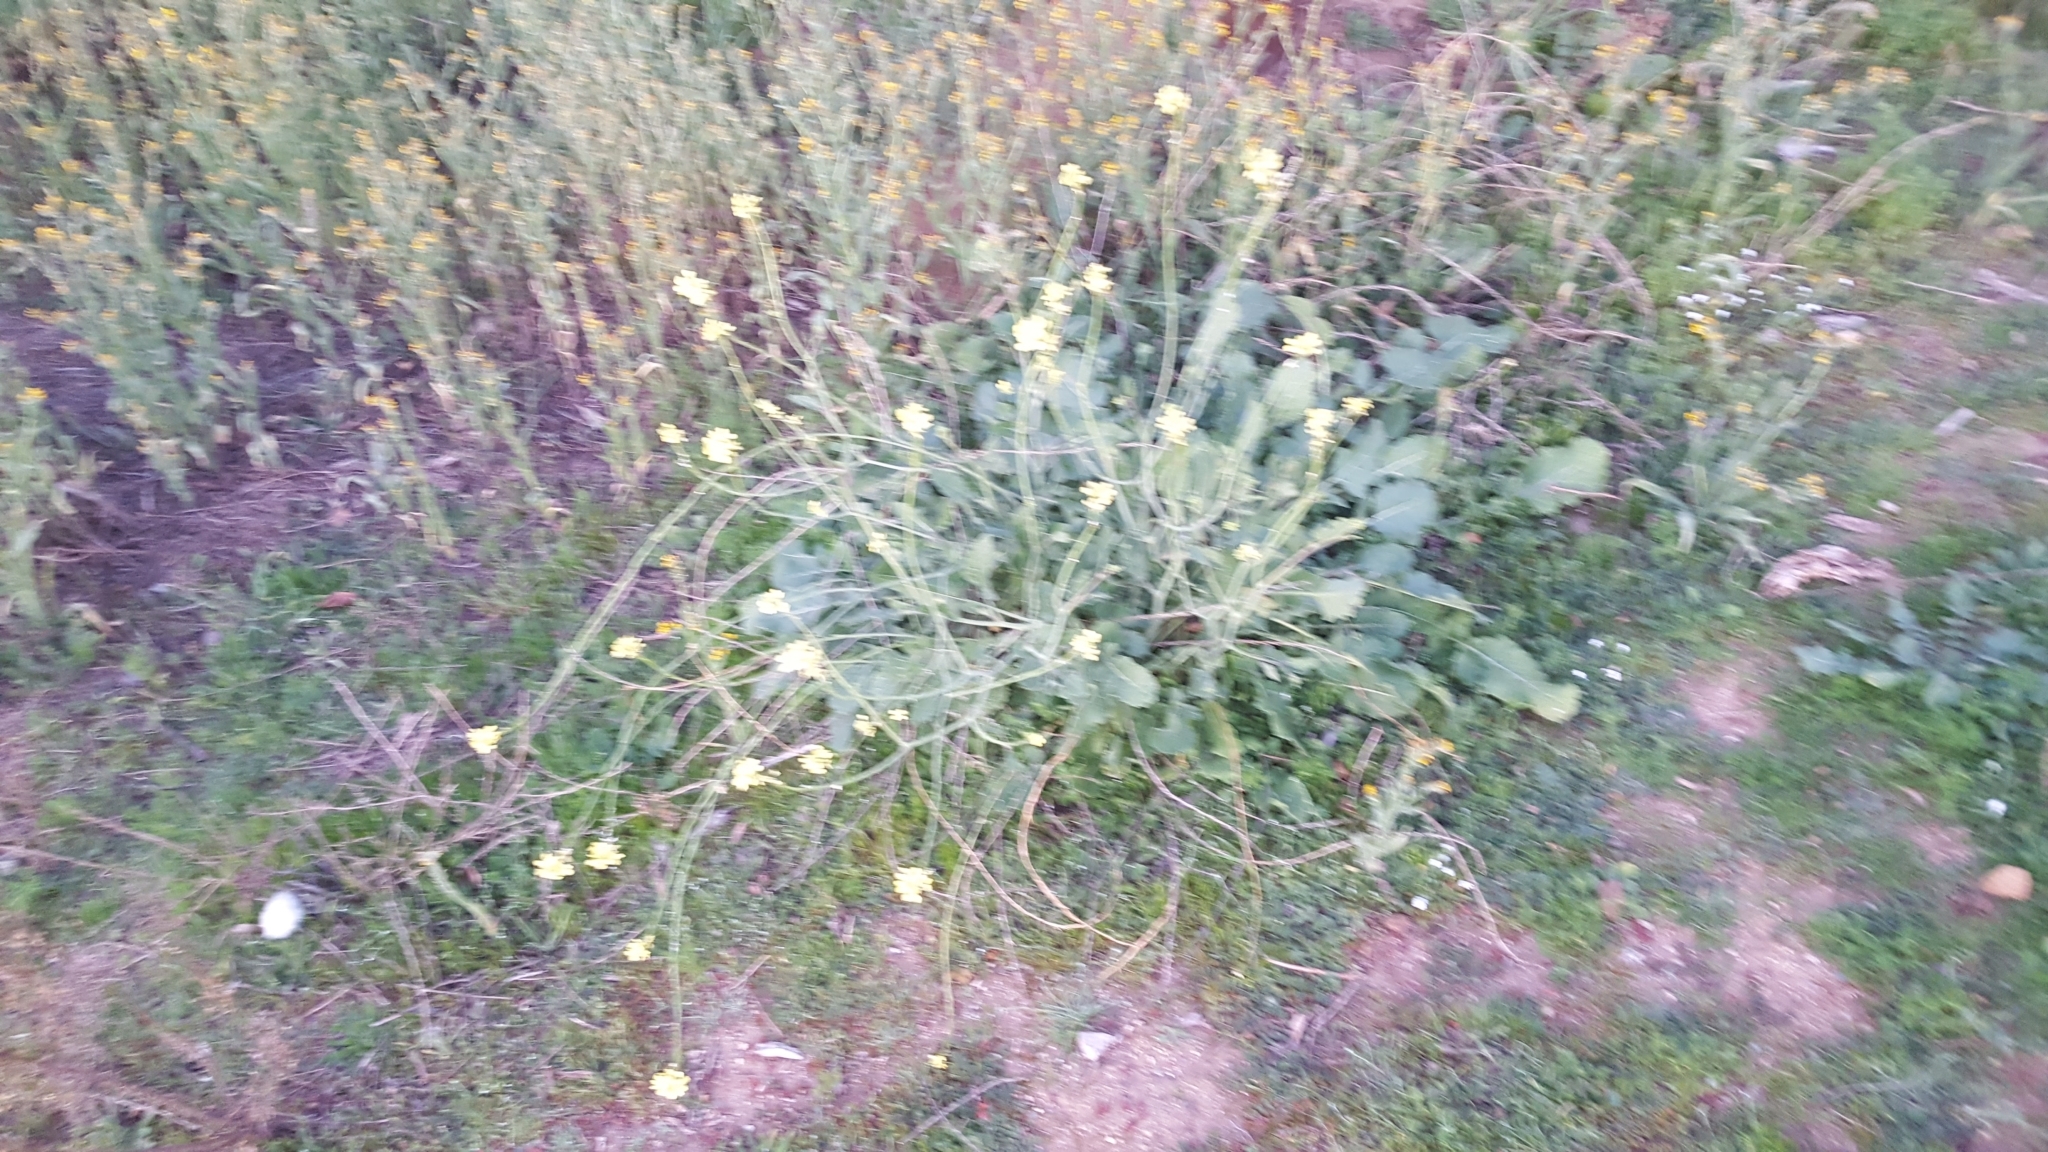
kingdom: Plantae
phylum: Tracheophyta
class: Magnoliopsida
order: Brassicales
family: Brassicaceae
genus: Hirschfeldia
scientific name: Hirschfeldia incana
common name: Hoary mustard
